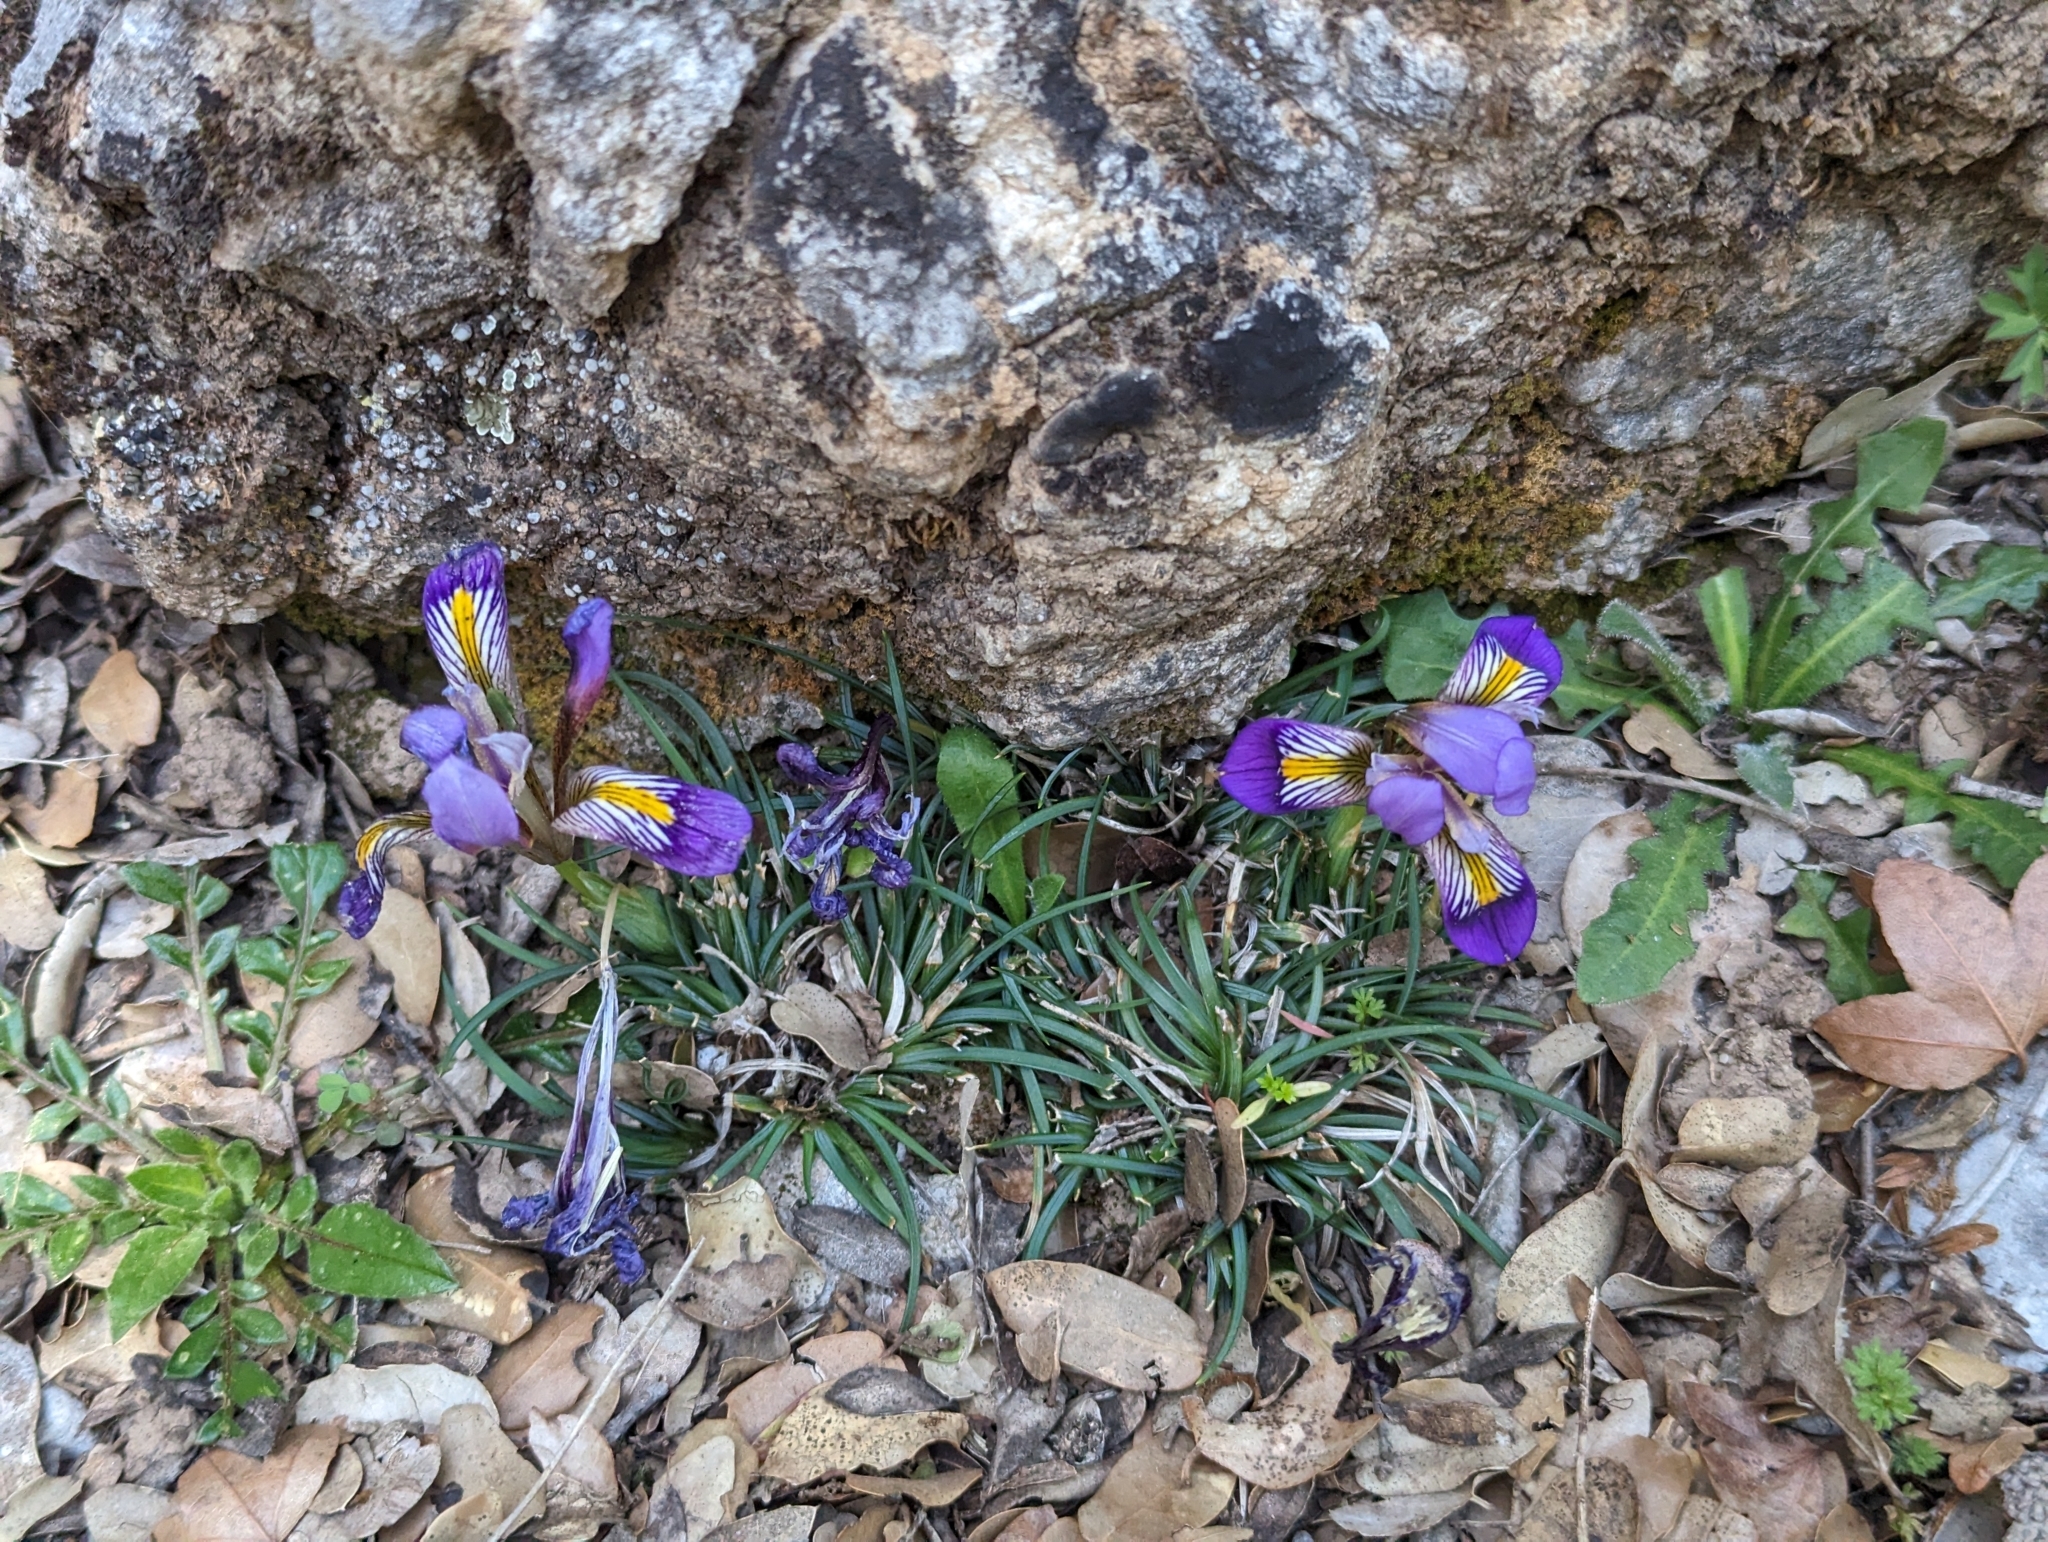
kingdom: Plantae
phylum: Tracheophyta
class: Liliopsida
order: Asparagales
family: Iridaceae
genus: Iris
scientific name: Iris unguicularis
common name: Algerian iris
